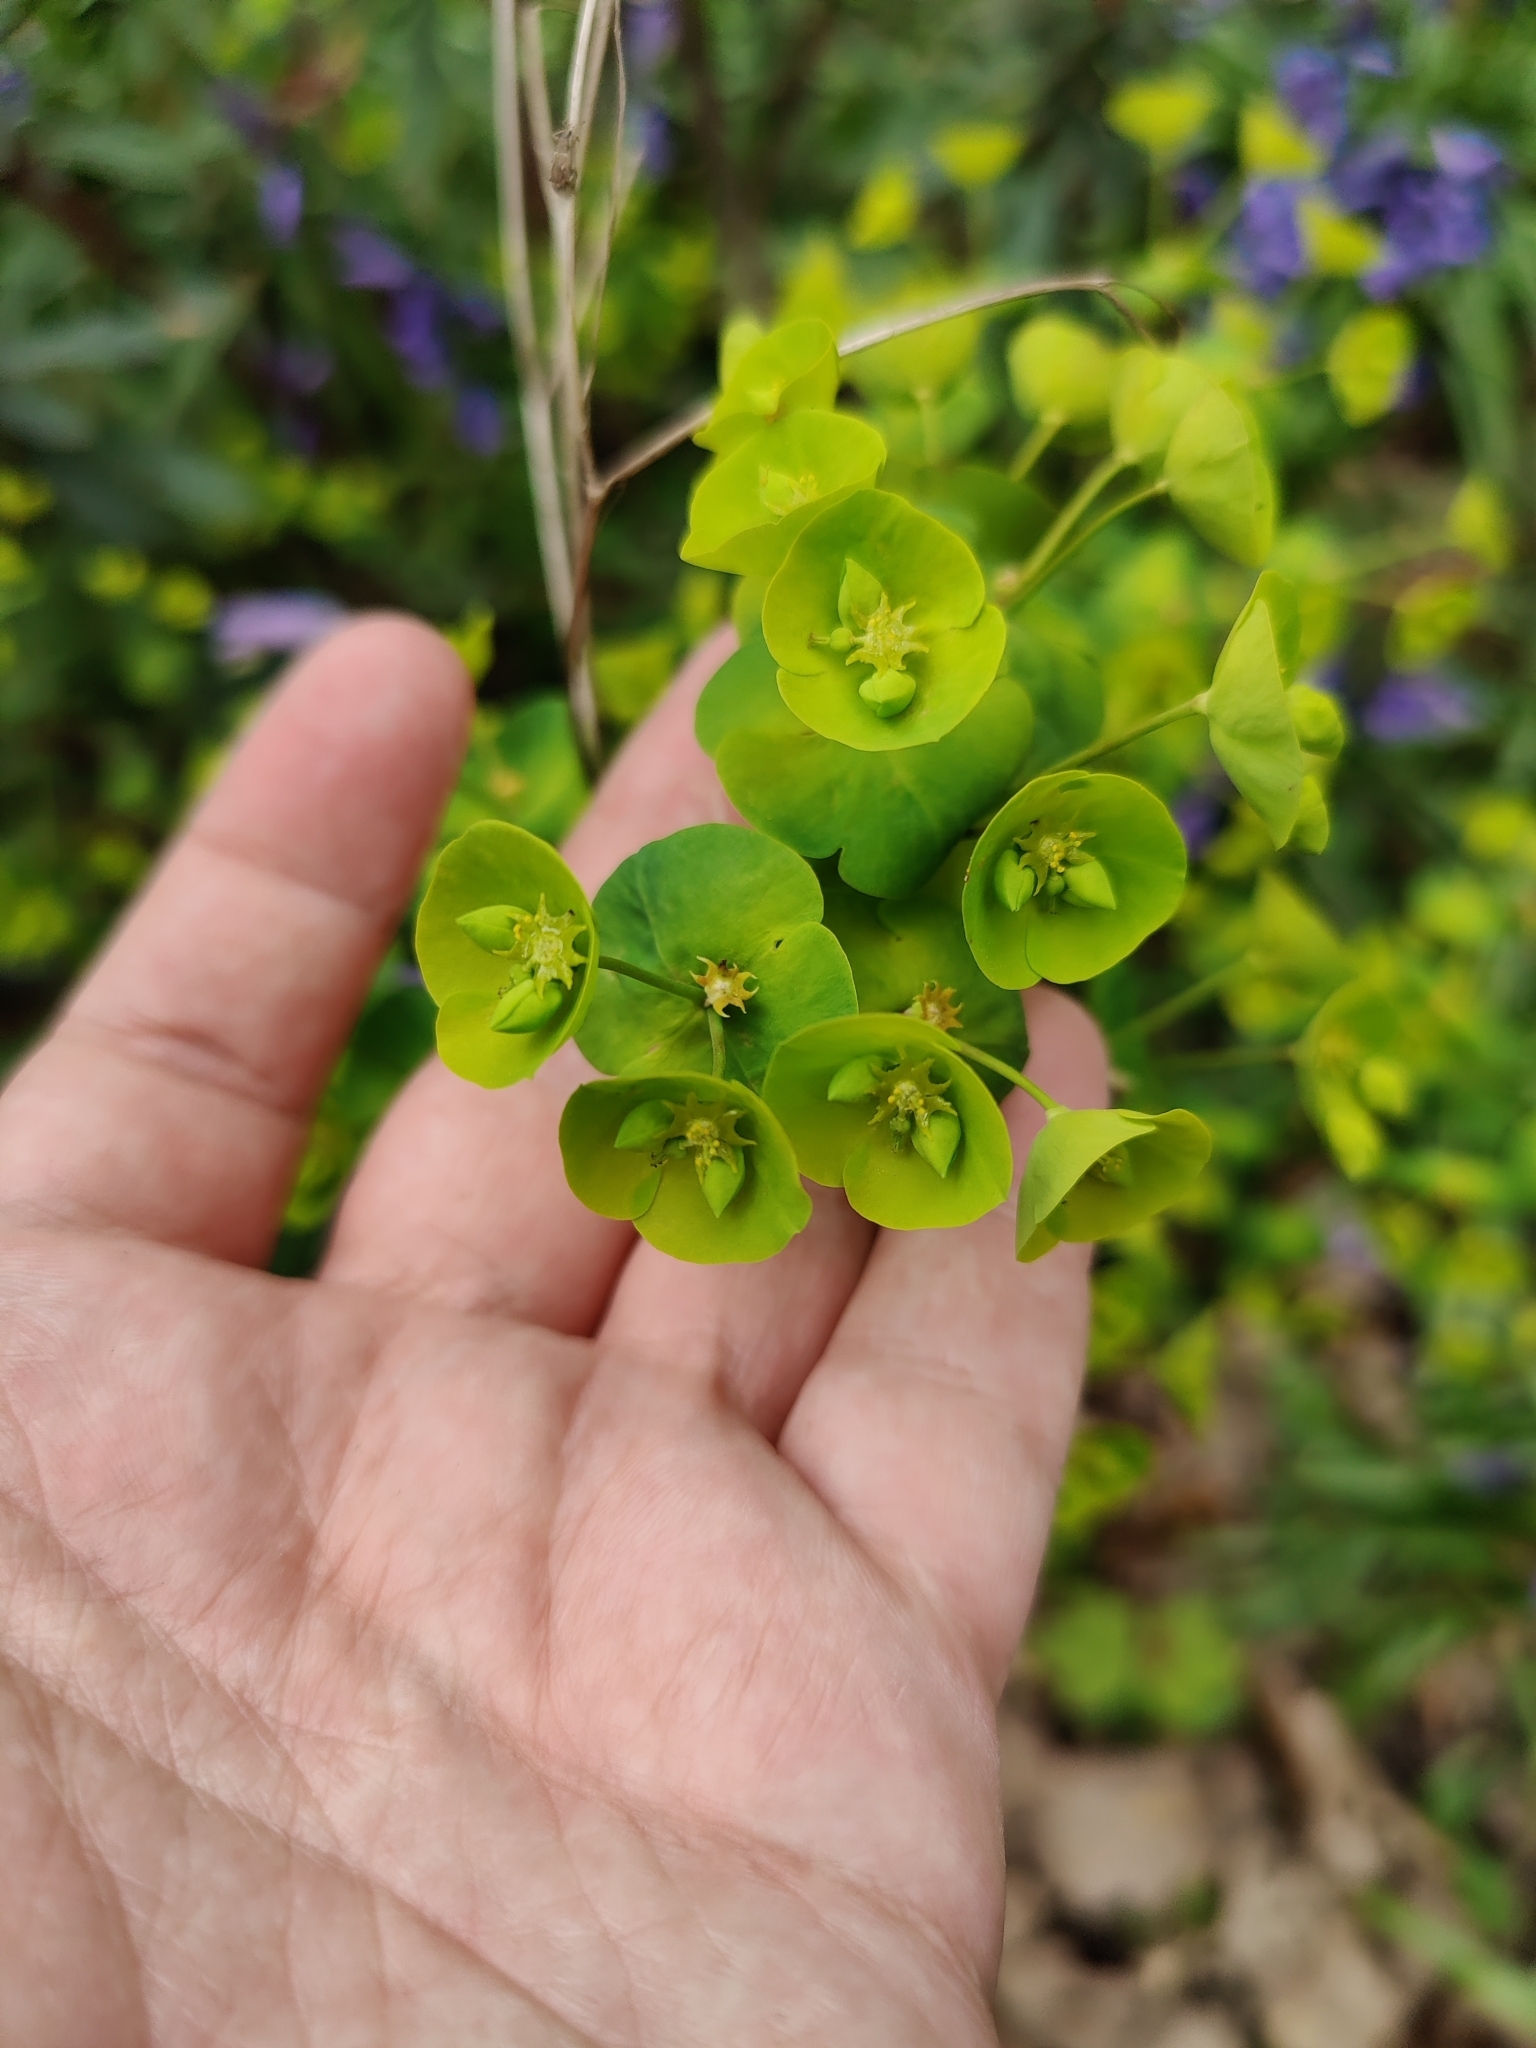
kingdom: Plantae
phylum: Tracheophyta
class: Magnoliopsida
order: Malpighiales
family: Euphorbiaceae
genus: Euphorbia
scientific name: Euphorbia amygdaloides
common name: Wood spurge
